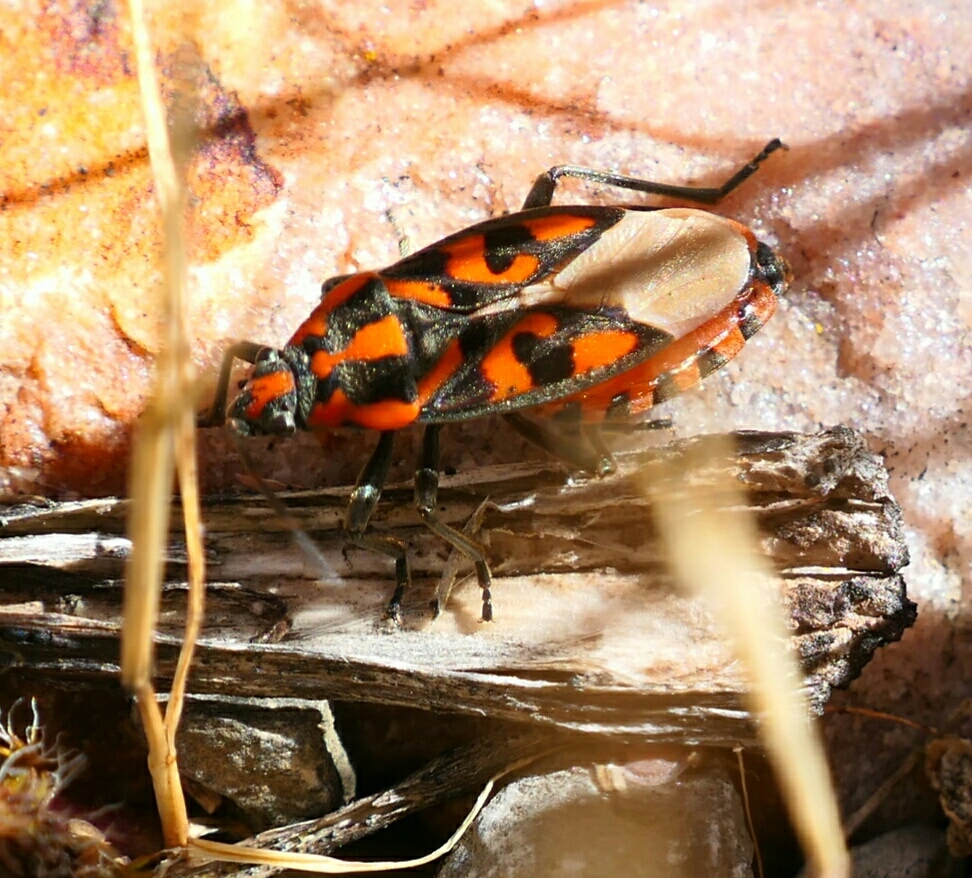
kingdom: Animalia
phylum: Arthropoda
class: Insecta
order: Hemiptera
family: Lygaeidae
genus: Spilostethus
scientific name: Spilostethus saxatilis
